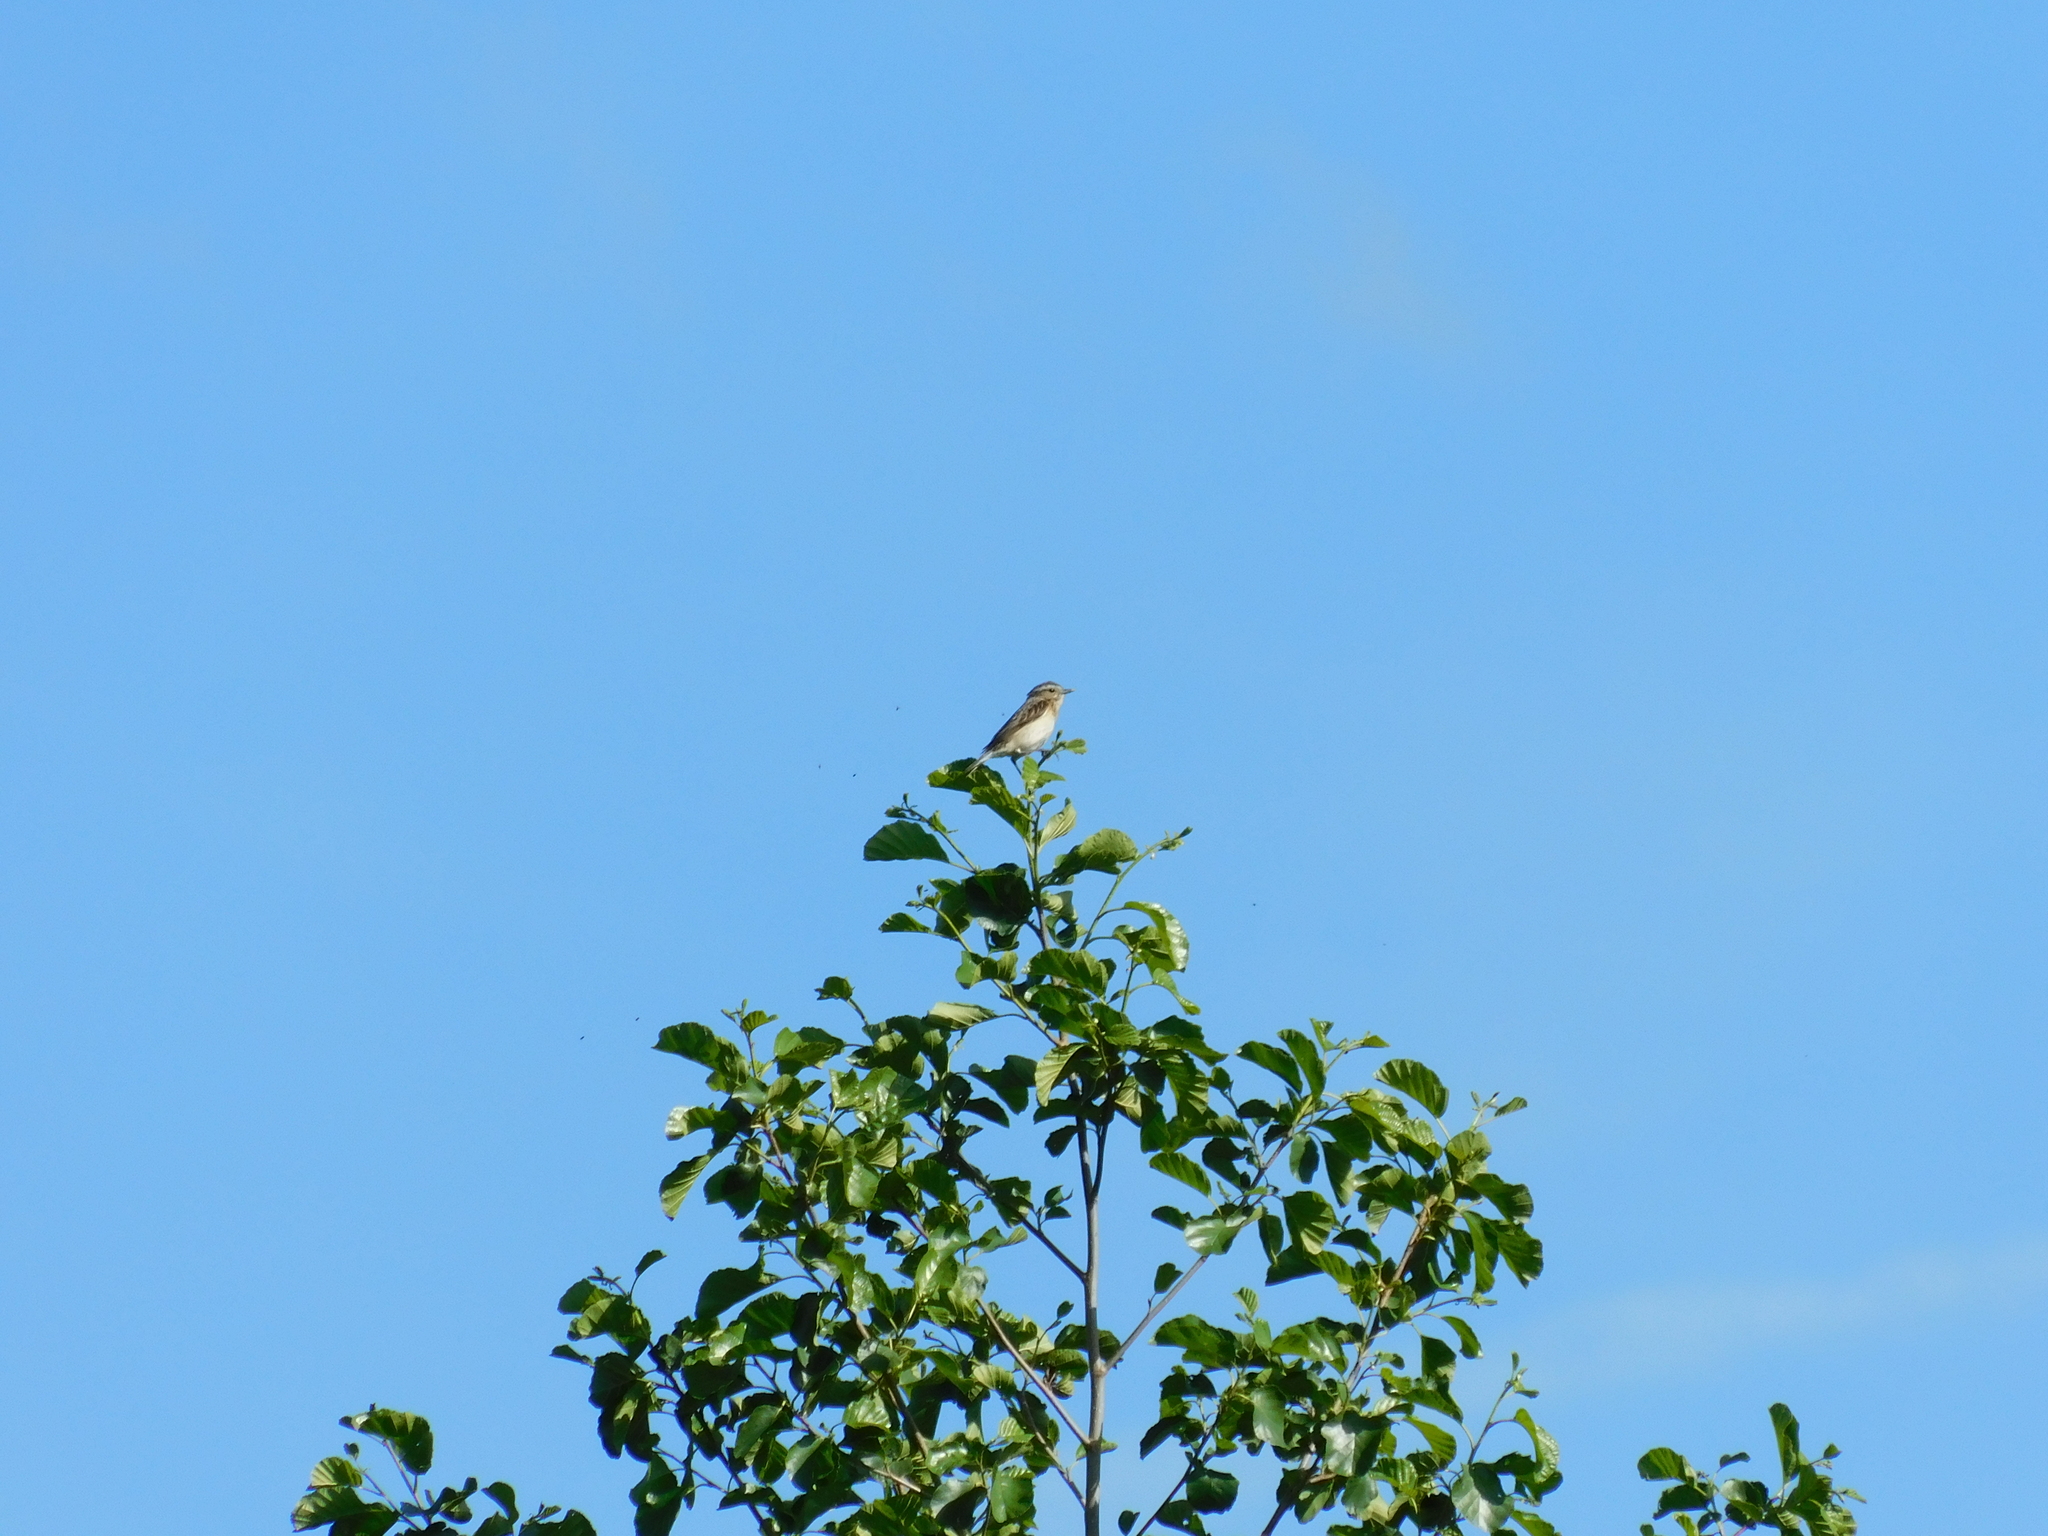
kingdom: Animalia
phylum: Chordata
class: Aves
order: Passeriformes
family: Muscicapidae
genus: Saxicola
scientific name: Saxicola rubetra
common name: Whinchat
